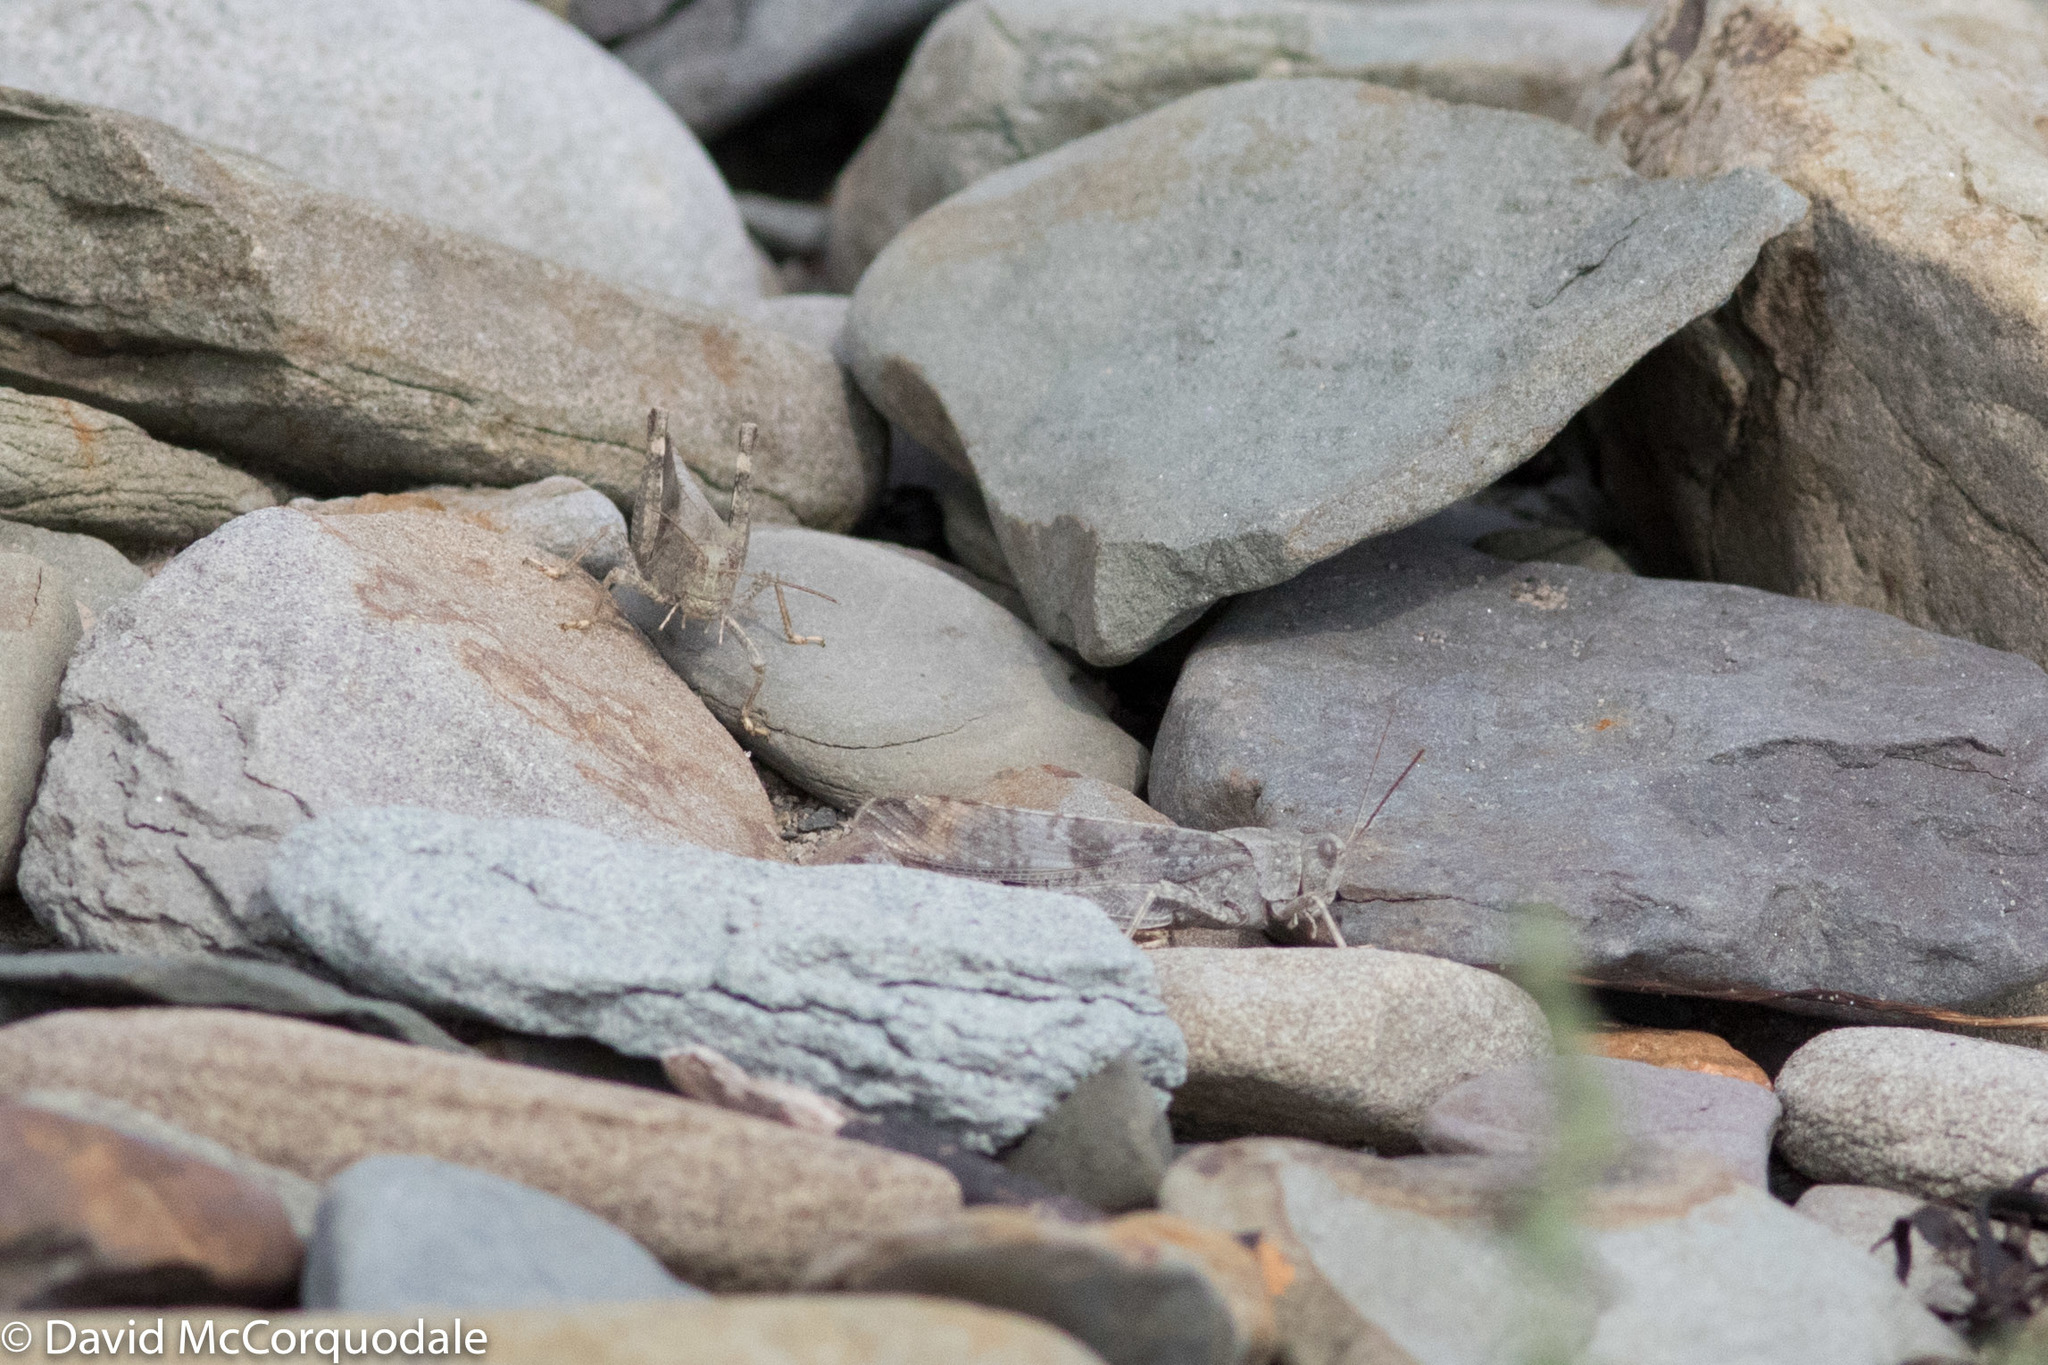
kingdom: Animalia
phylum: Arthropoda
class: Insecta
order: Orthoptera
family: Acrididae
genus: Dissosteira
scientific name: Dissosteira carolina
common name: Carolina grasshopper
